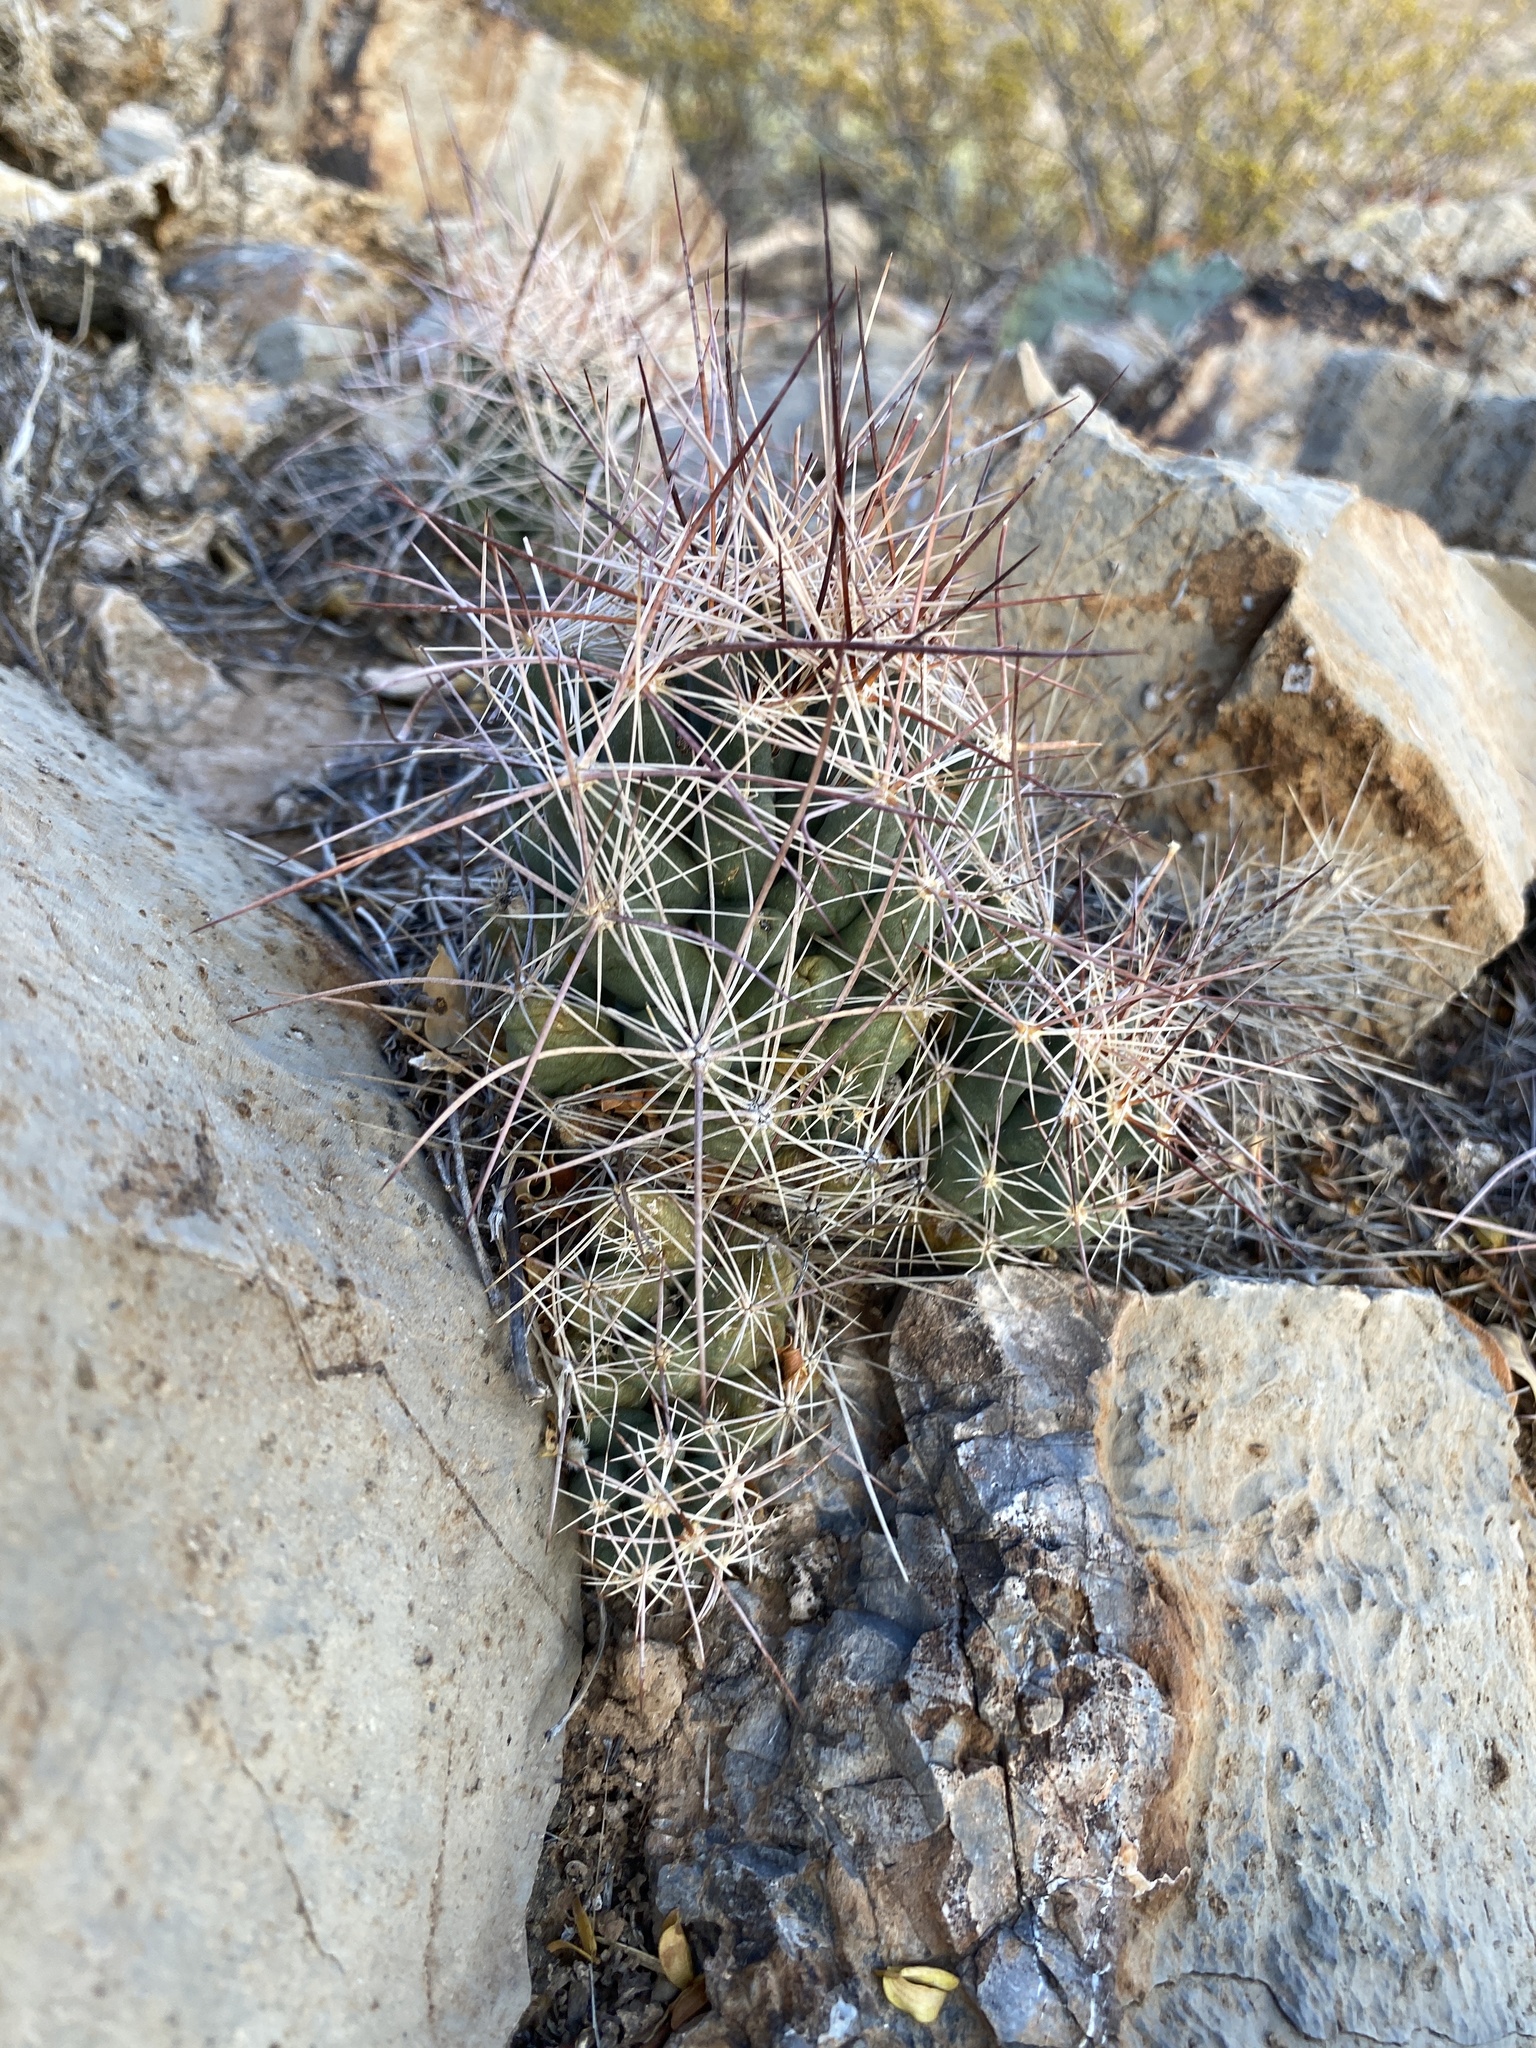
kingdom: Plantae
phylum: Tracheophyta
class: Magnoliopsida
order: Caryophyllales
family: Cactaceae
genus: Coryphantha
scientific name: Coryphantha macromeris
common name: Nipple beehive cactus
